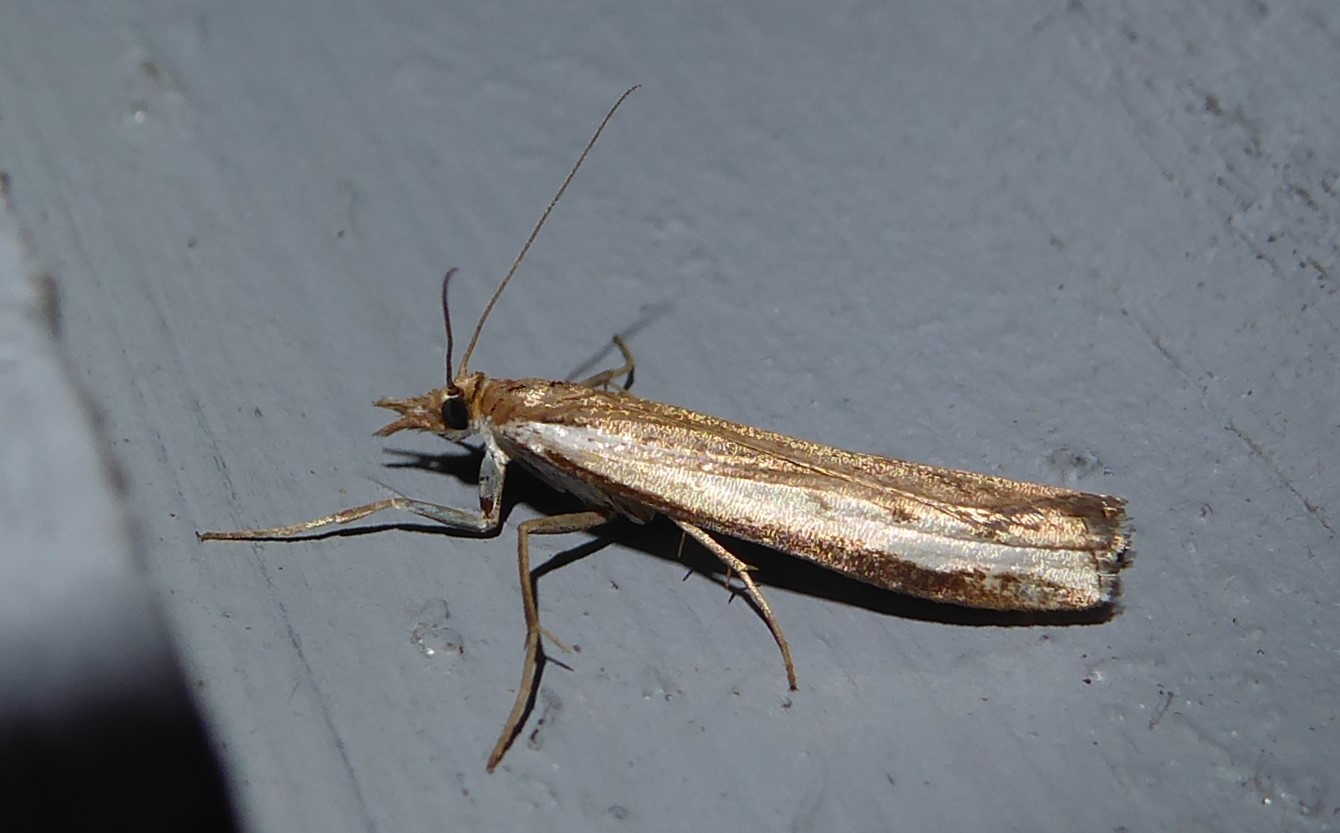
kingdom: Animalia
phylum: Arthropoda
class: Insecta
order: Lepidoptera
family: Crambidae
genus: Orocrambus
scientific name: Orocrambus flexuosellus
